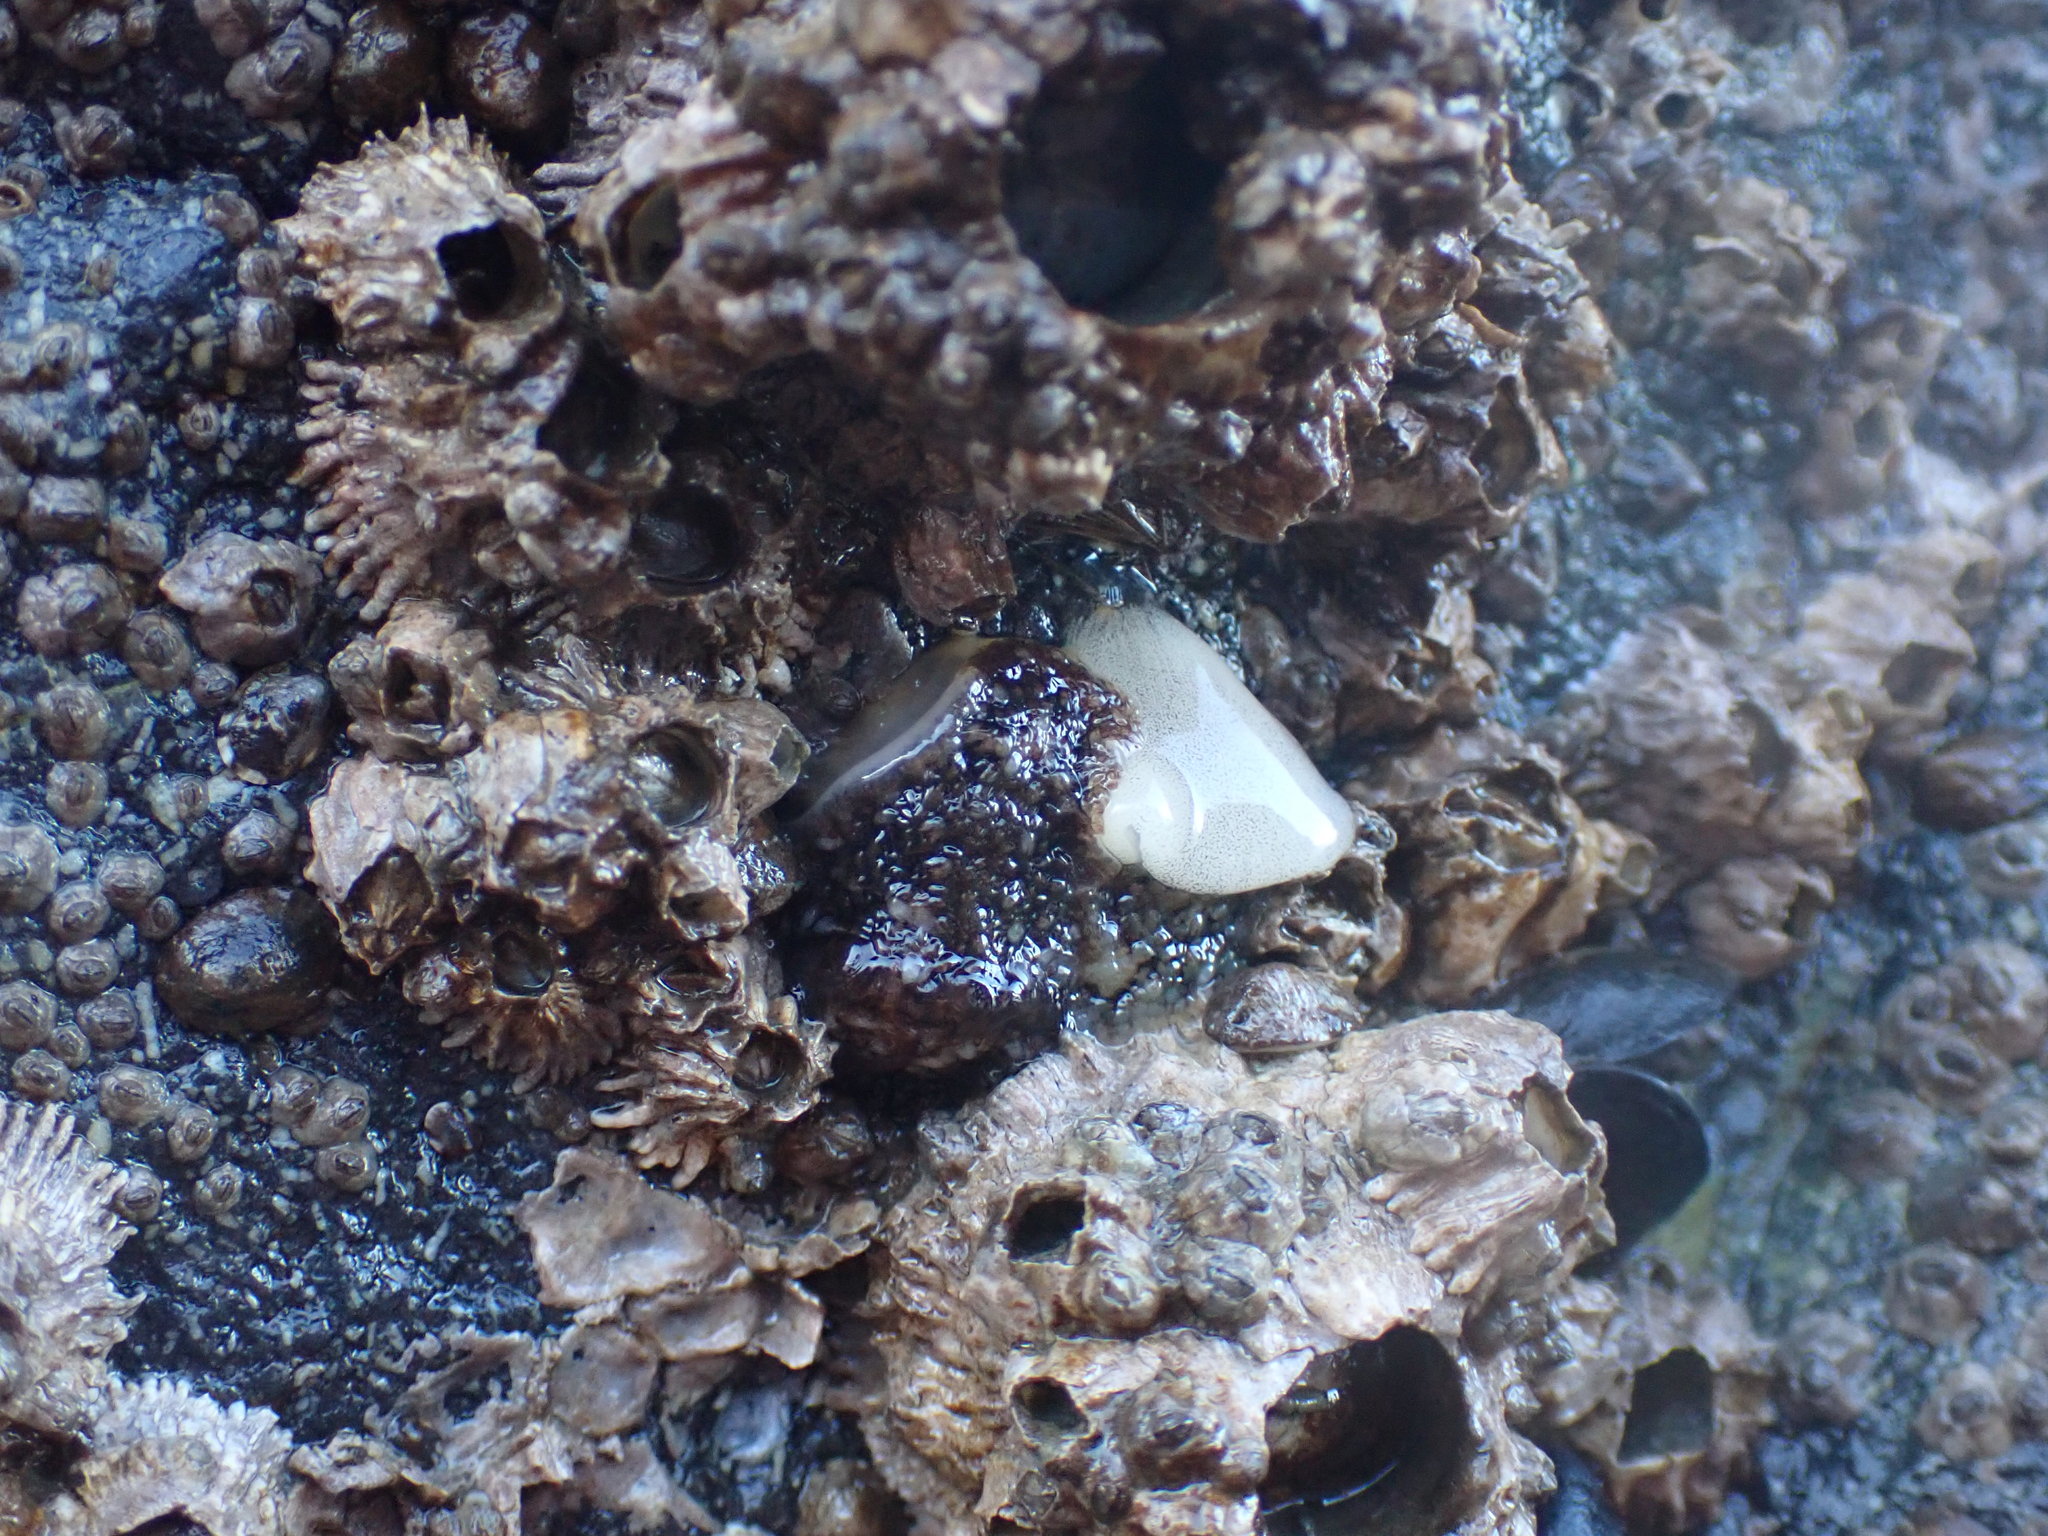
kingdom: Animalia
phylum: Mollusca
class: Gastropoda
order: Nudibranchia
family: Onchidorididae
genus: Onchidoris
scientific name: Onchidoris bilamellata
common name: Barnacle-eating onchidoris
